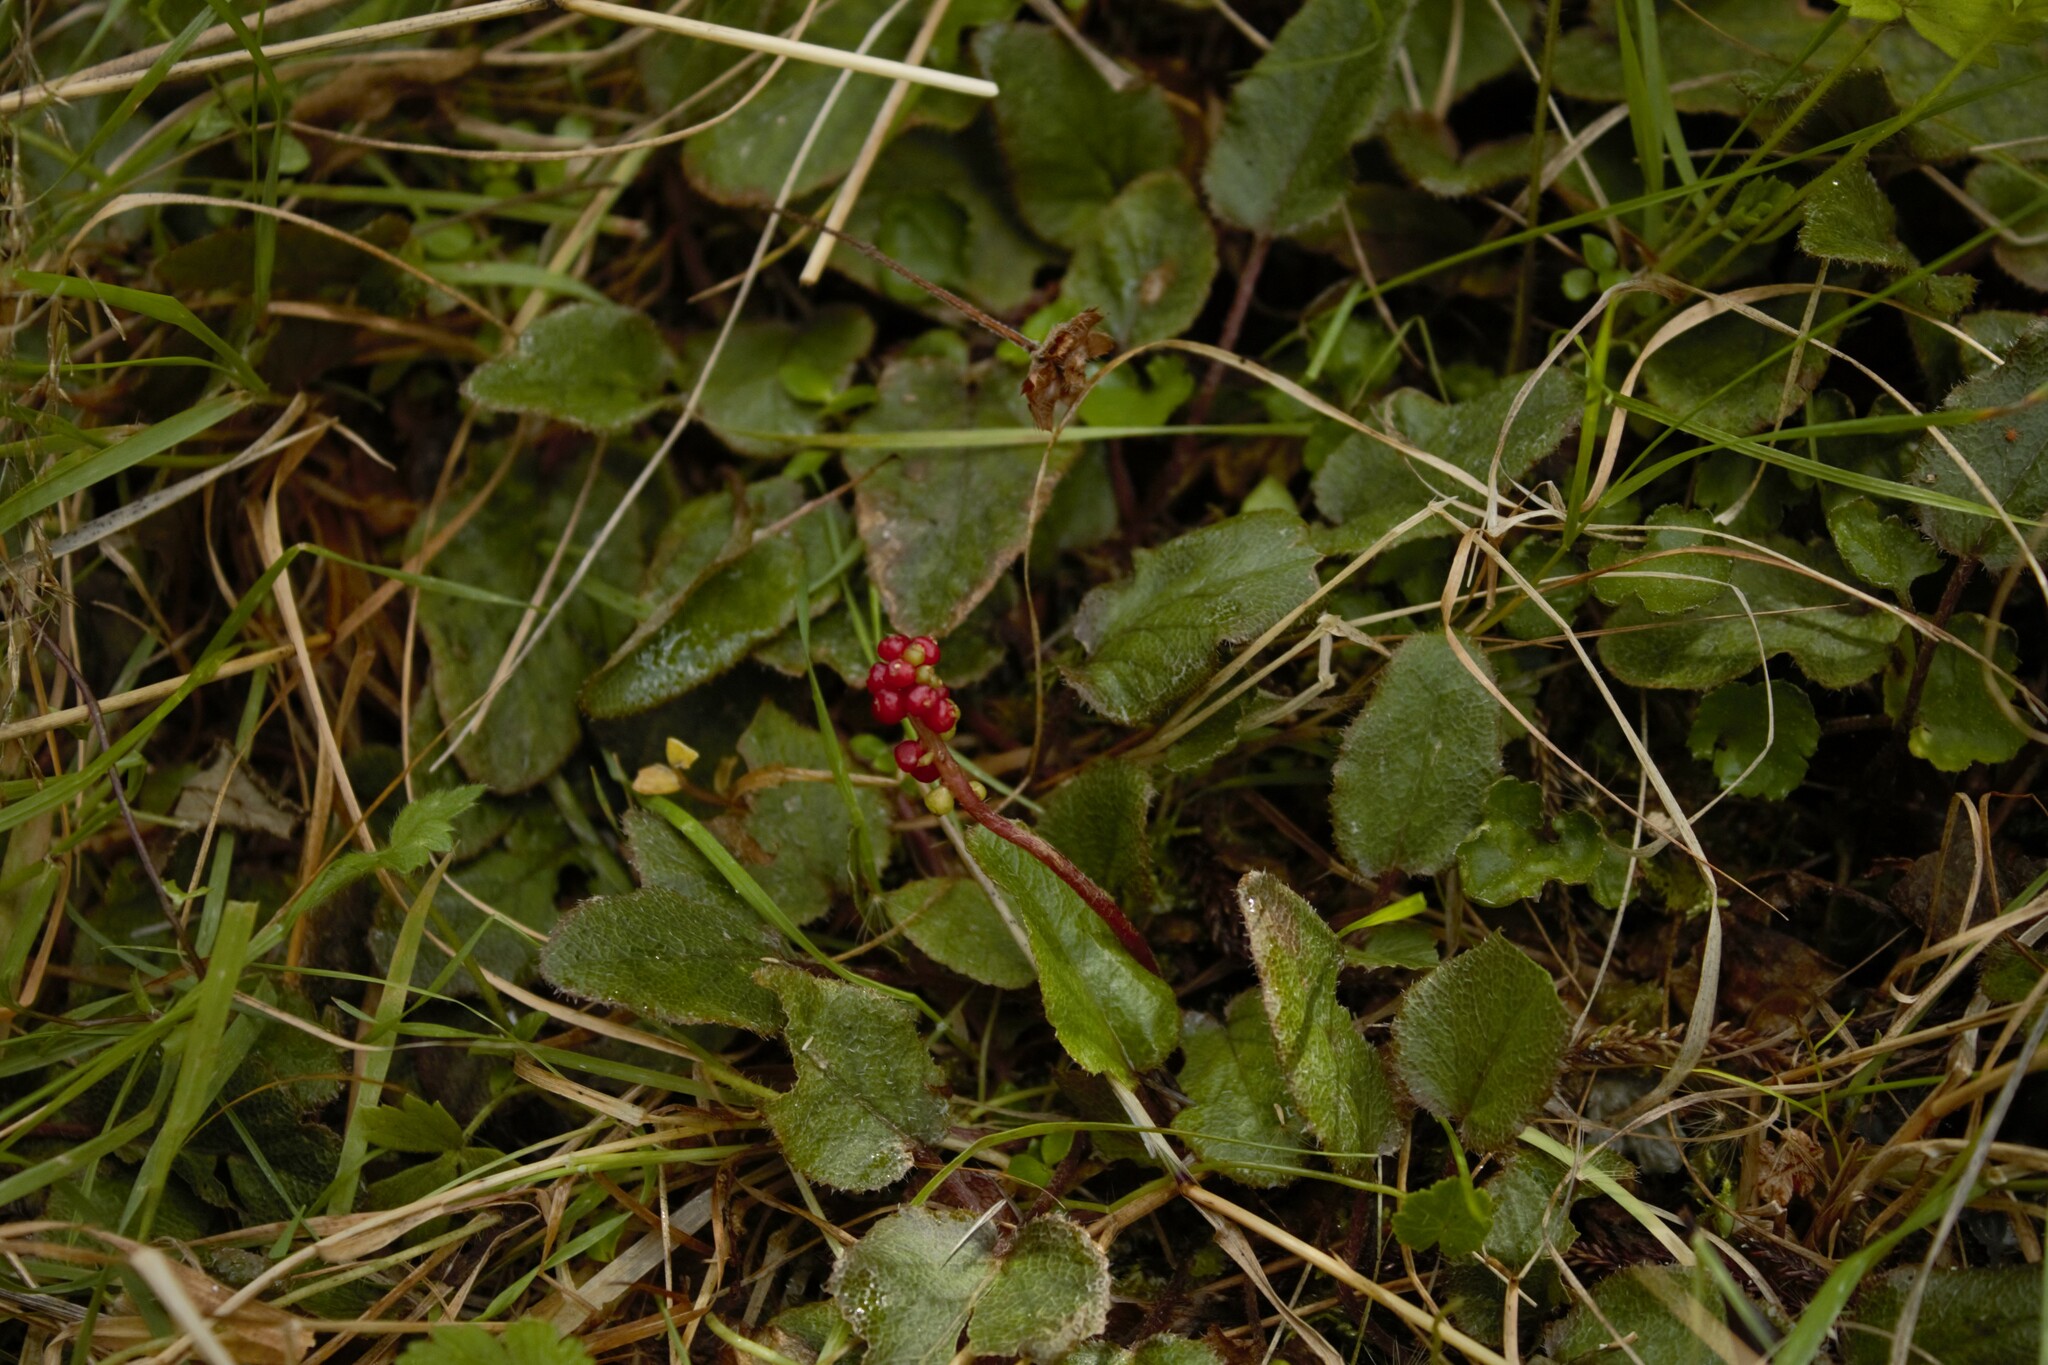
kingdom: Plantae
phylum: Tracheophyta
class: Magnoliopsida
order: Gunnerales
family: Gunneraceae
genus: Gunnera
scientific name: Gunnera prorepens
